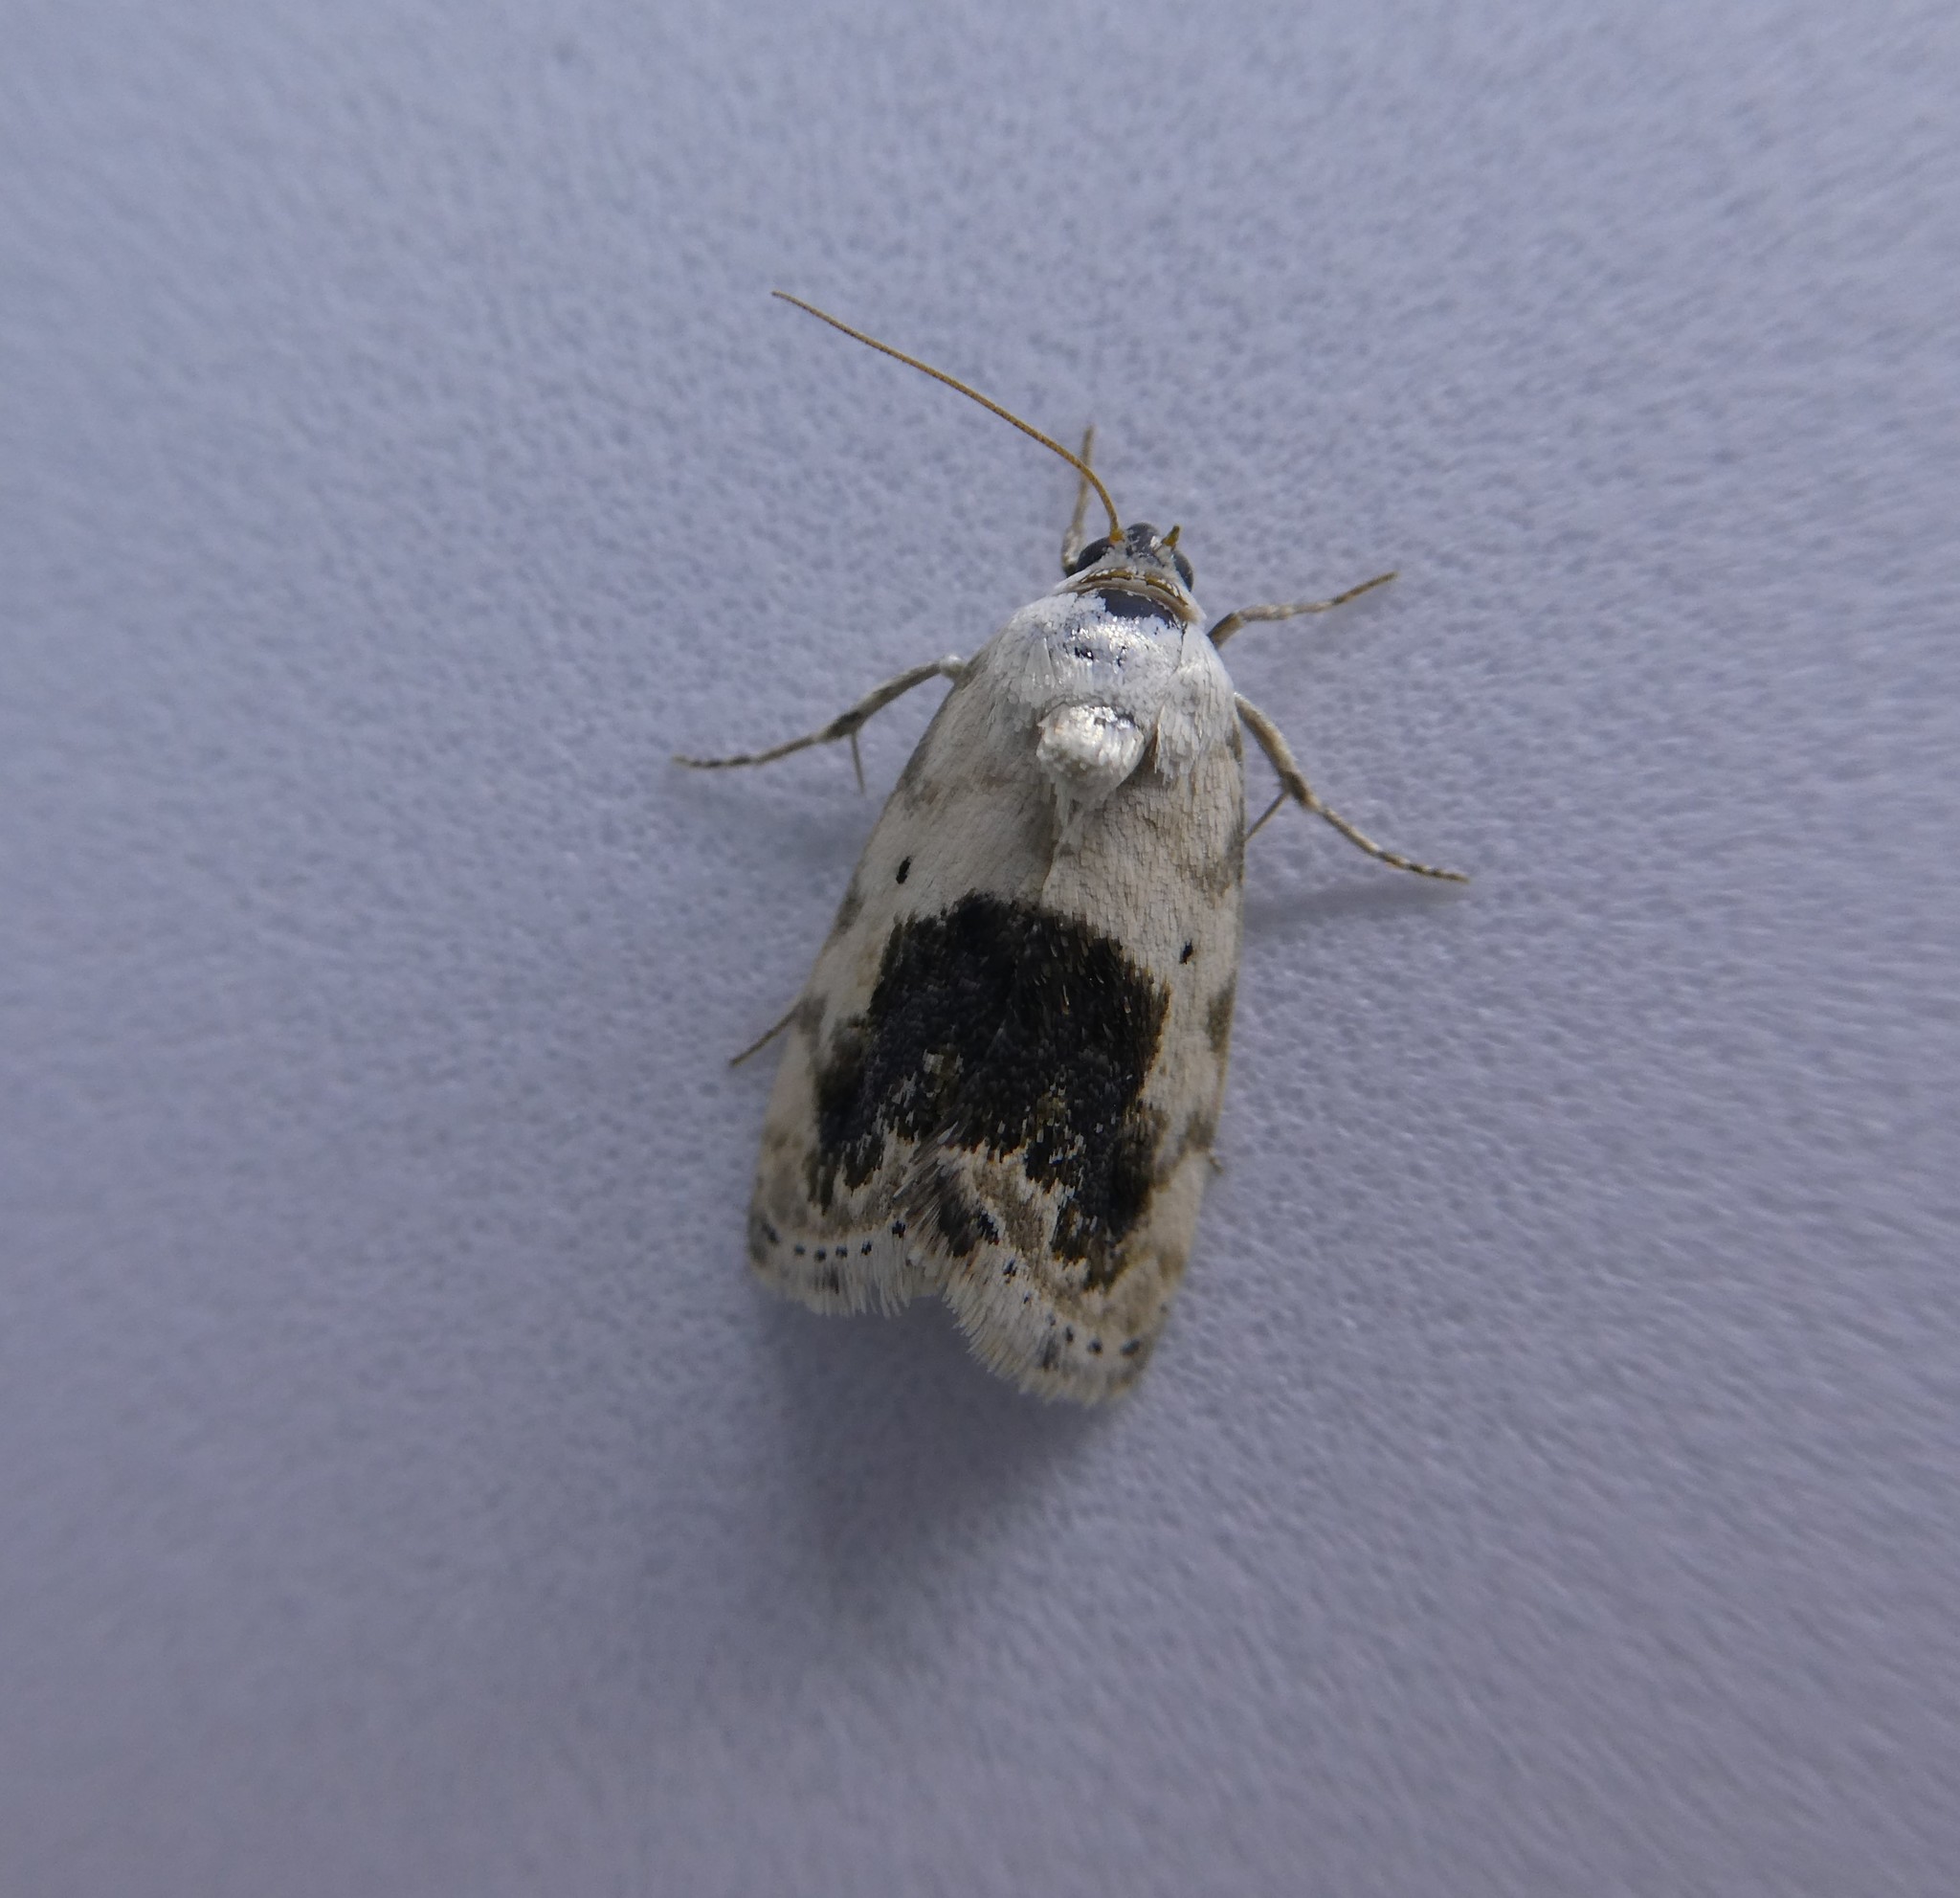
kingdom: Animalia
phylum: Arthropoda
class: Insecta
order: Lepidoptera
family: Noctuidae
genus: Acontia
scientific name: Acontia erastrioides
